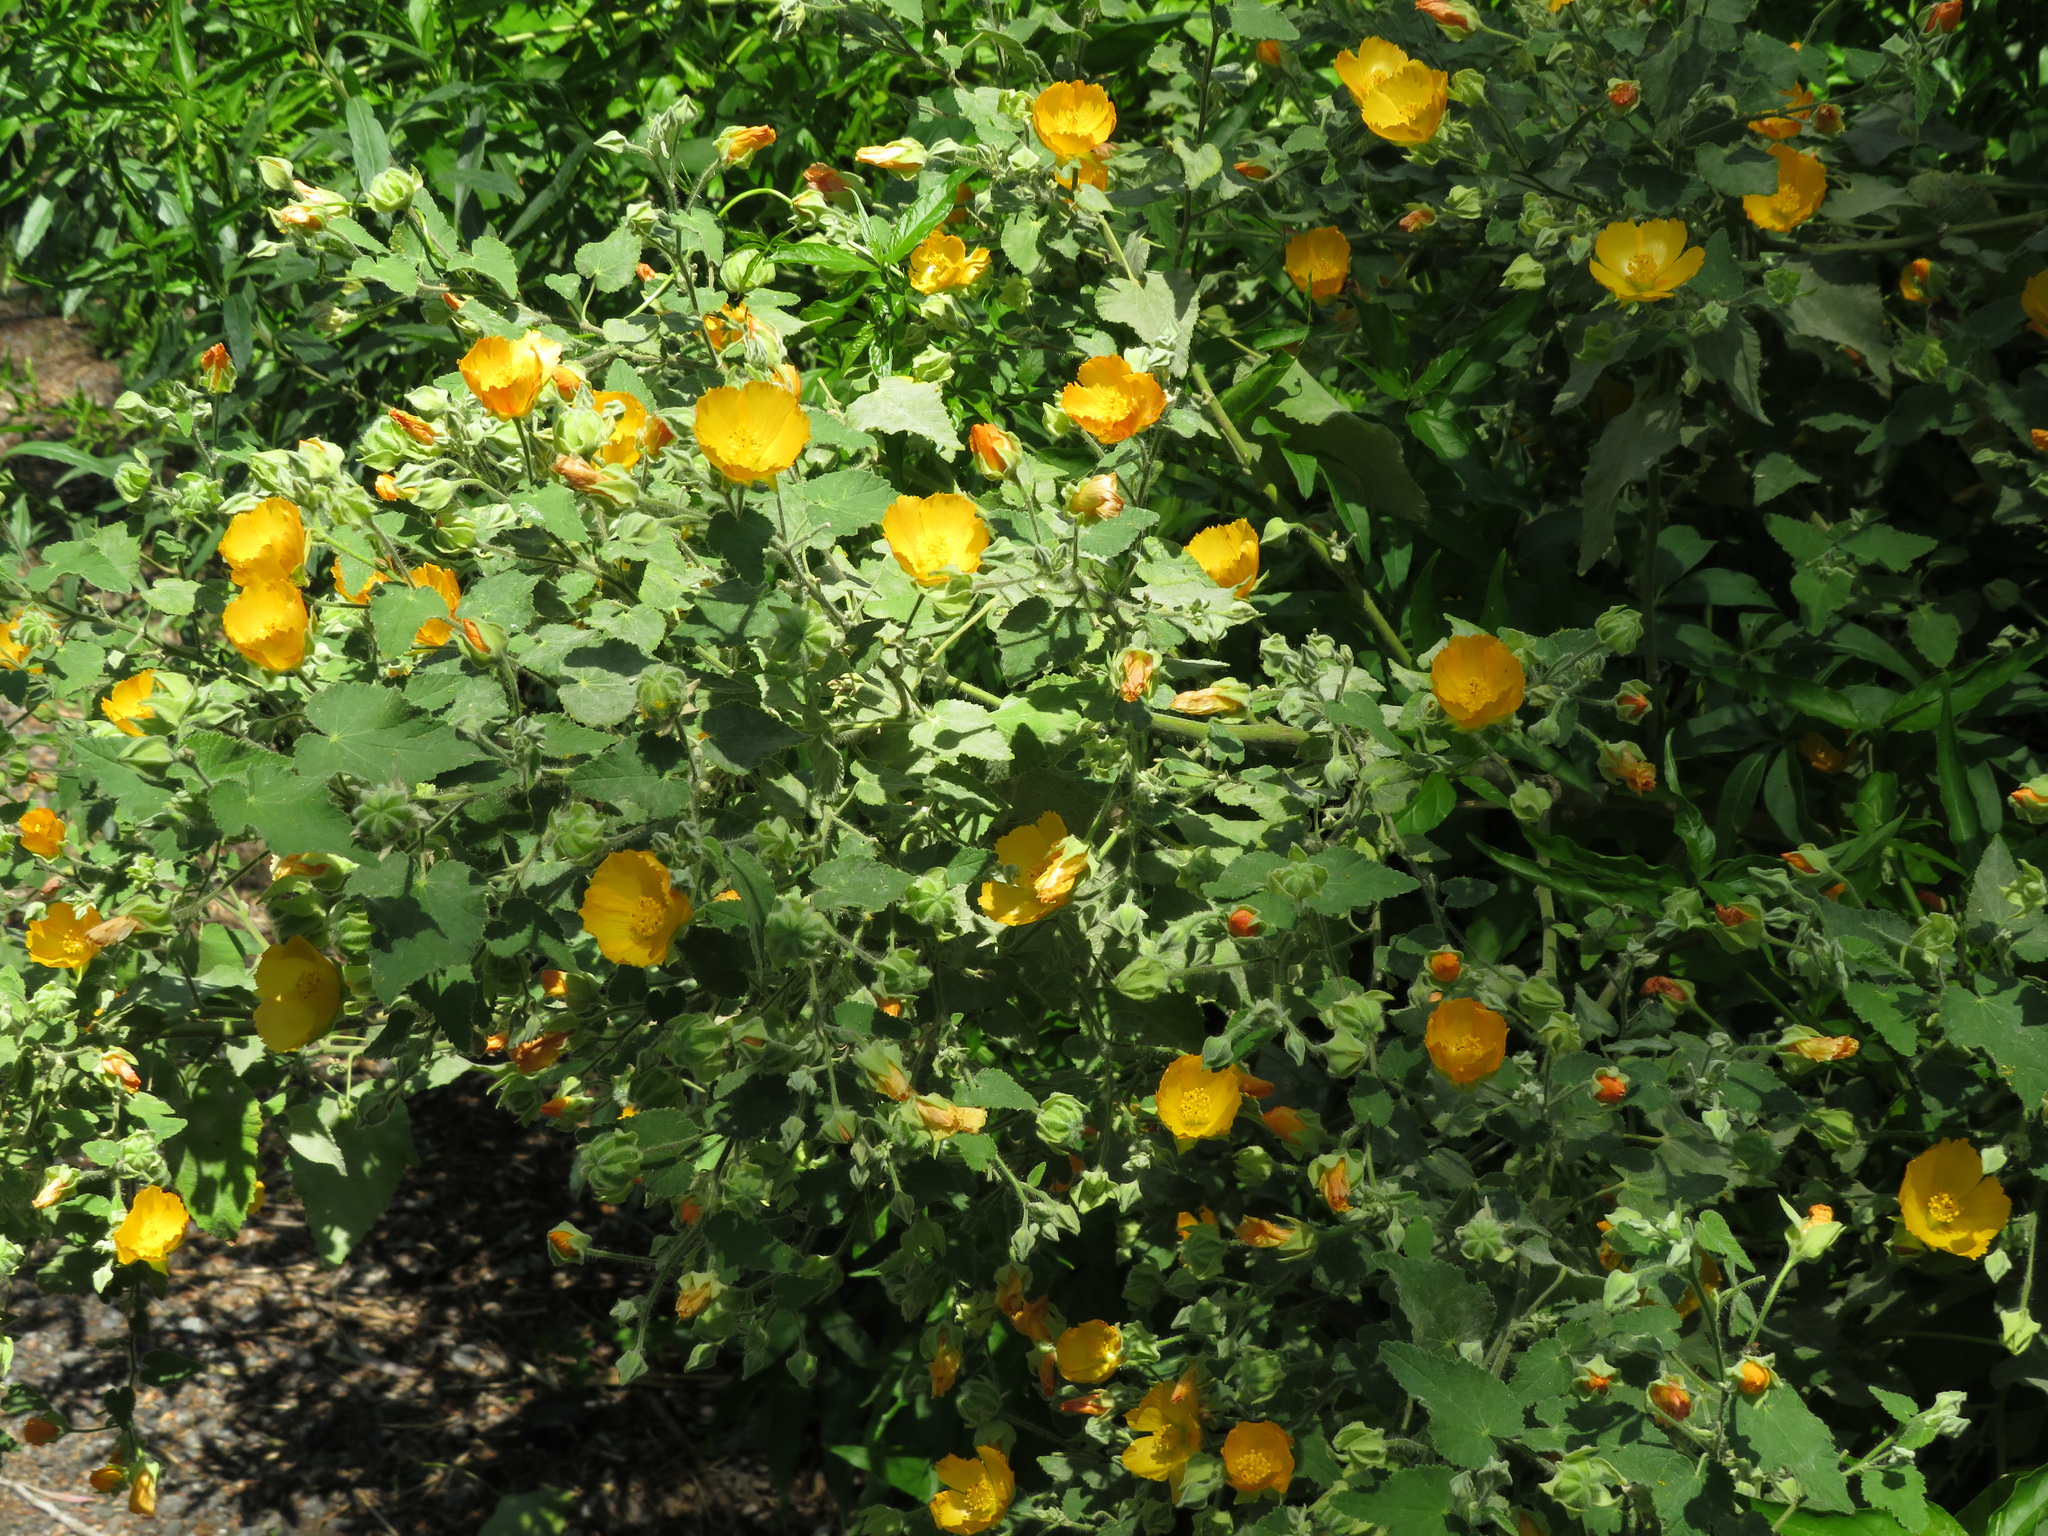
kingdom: Plantae
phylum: Tracheophyta
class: Magnoliopsida
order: Malvales
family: Malvaceae
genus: Abutilon
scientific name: Abutilon grandifolium
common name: Hairy abutilon
